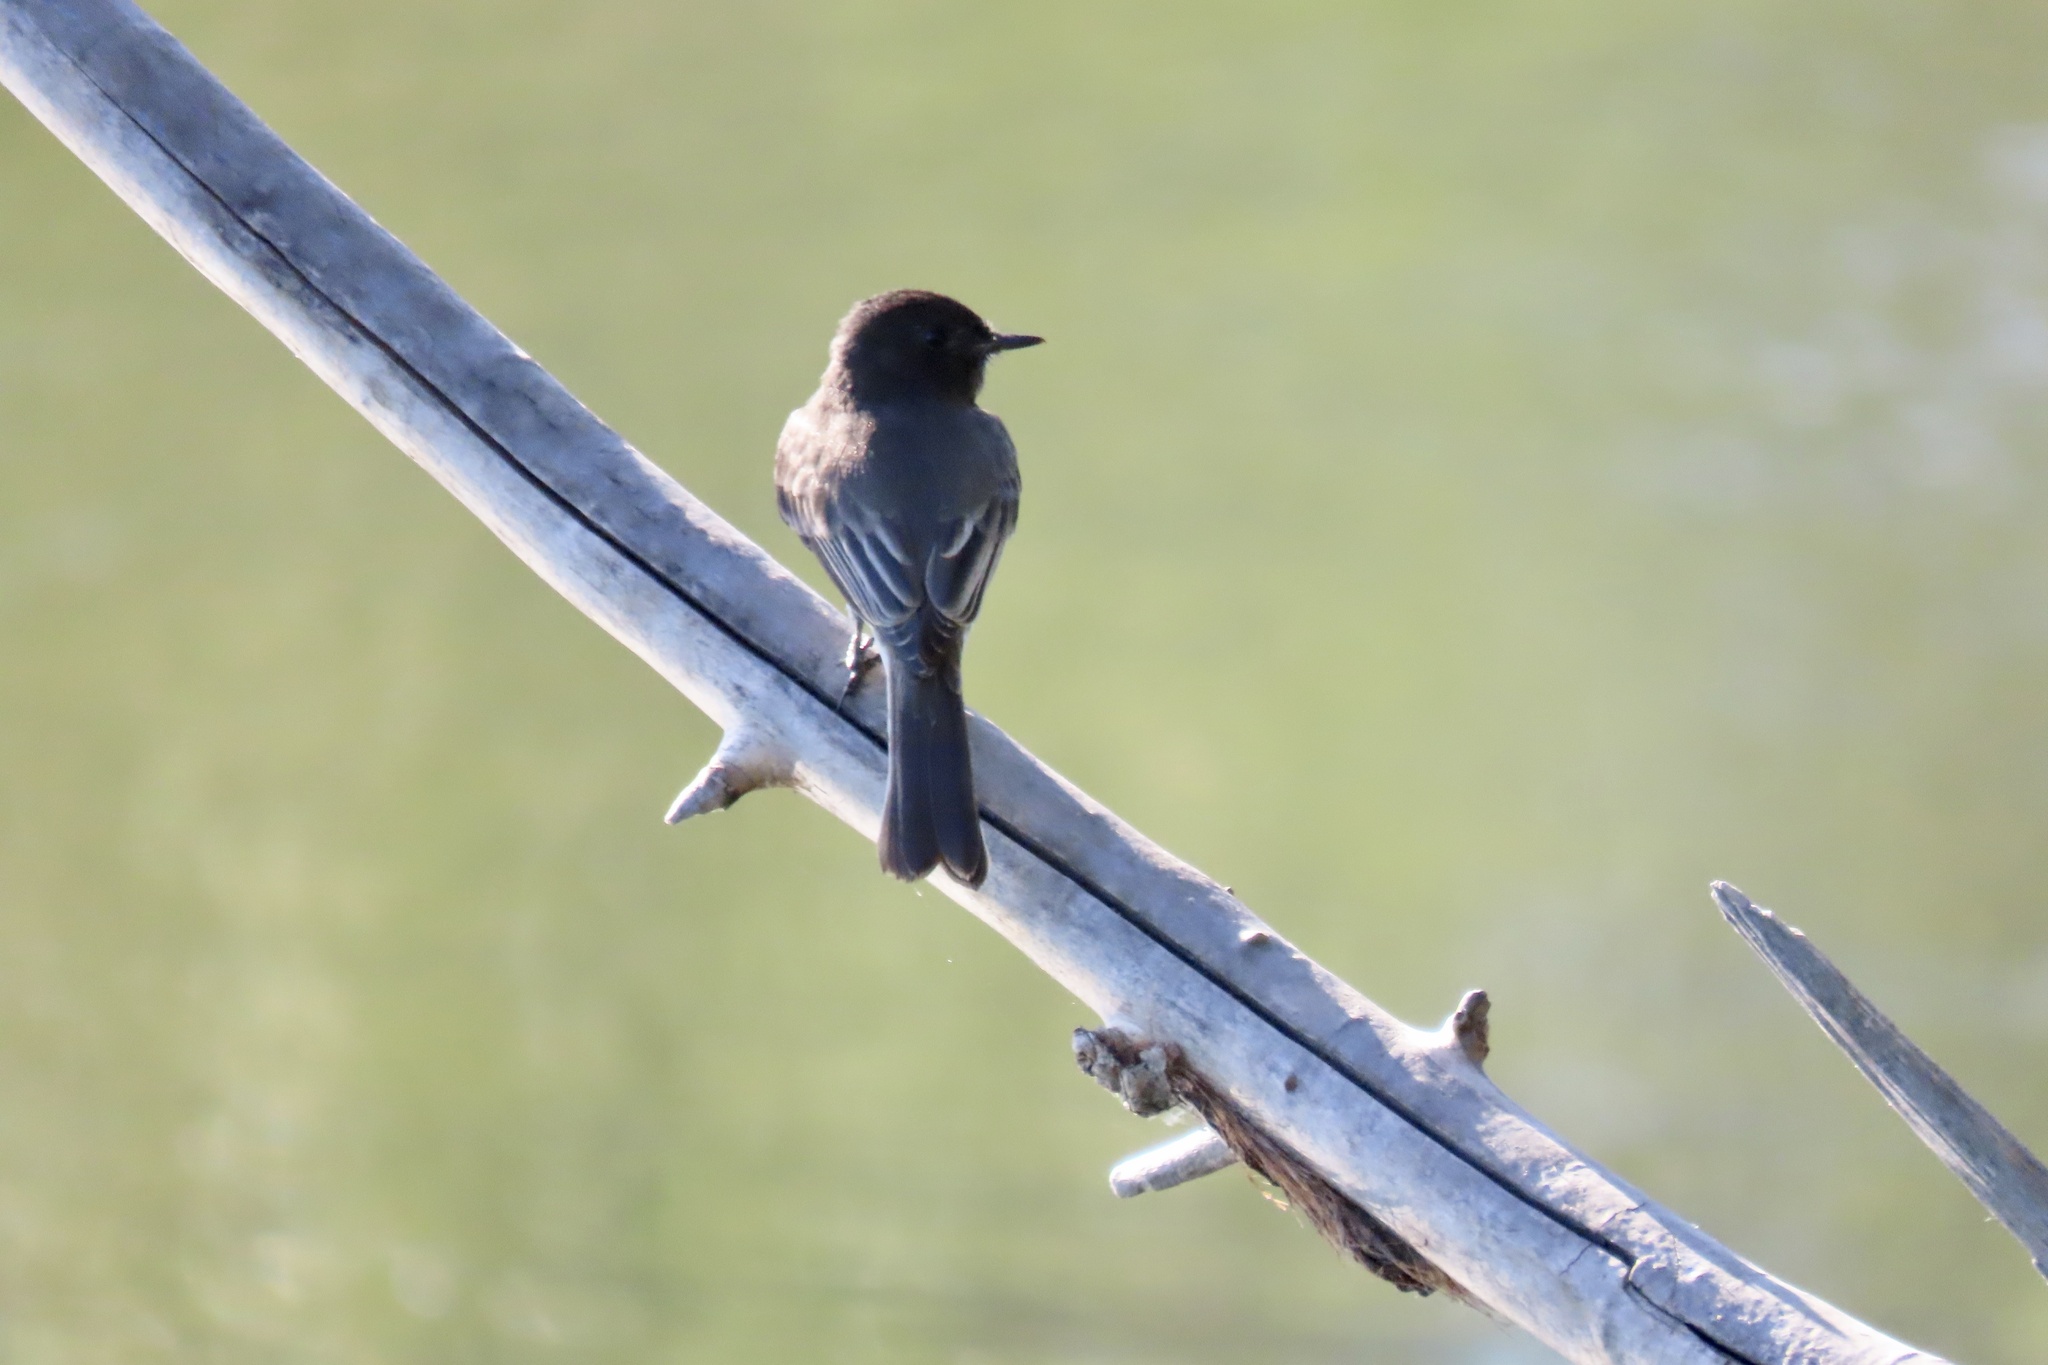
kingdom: Animalia
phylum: Chordata
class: Aves
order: Passeriformes
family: Tyrannidae
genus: Sayornis
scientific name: Sayornis nigricans
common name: Black phoebe
